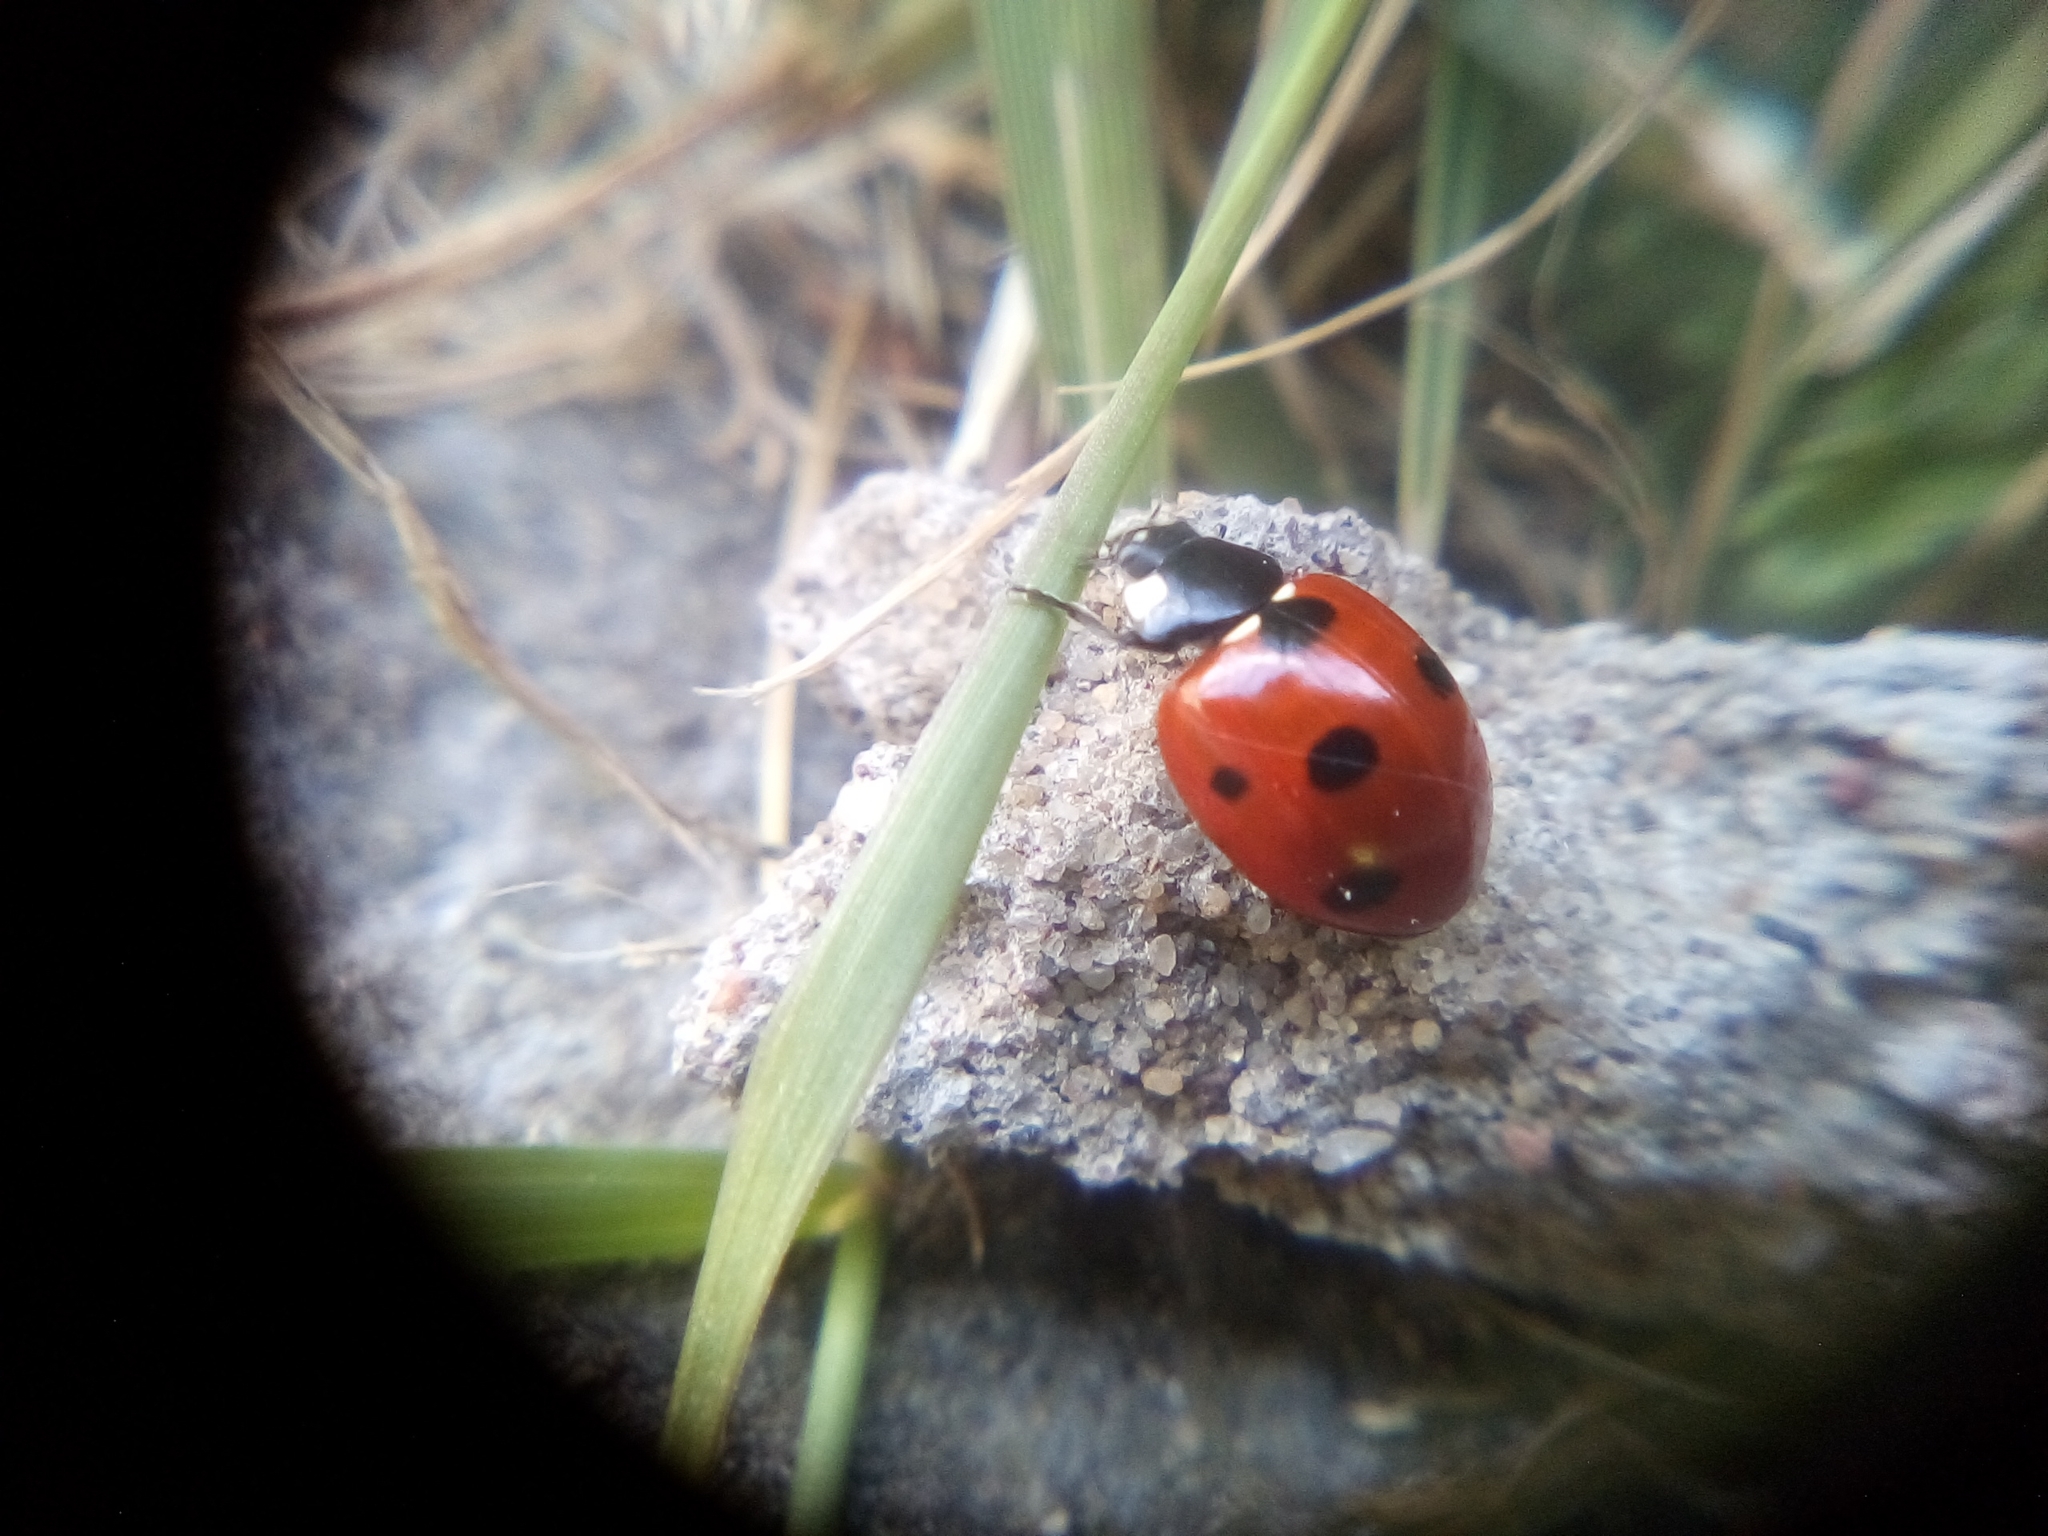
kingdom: Animalia
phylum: Arthropoda
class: Insecta
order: Coleoptera
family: Coccinellidae
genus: Coccinella
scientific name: Coccinella septempunctata
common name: Sevenspotted lady beetle
